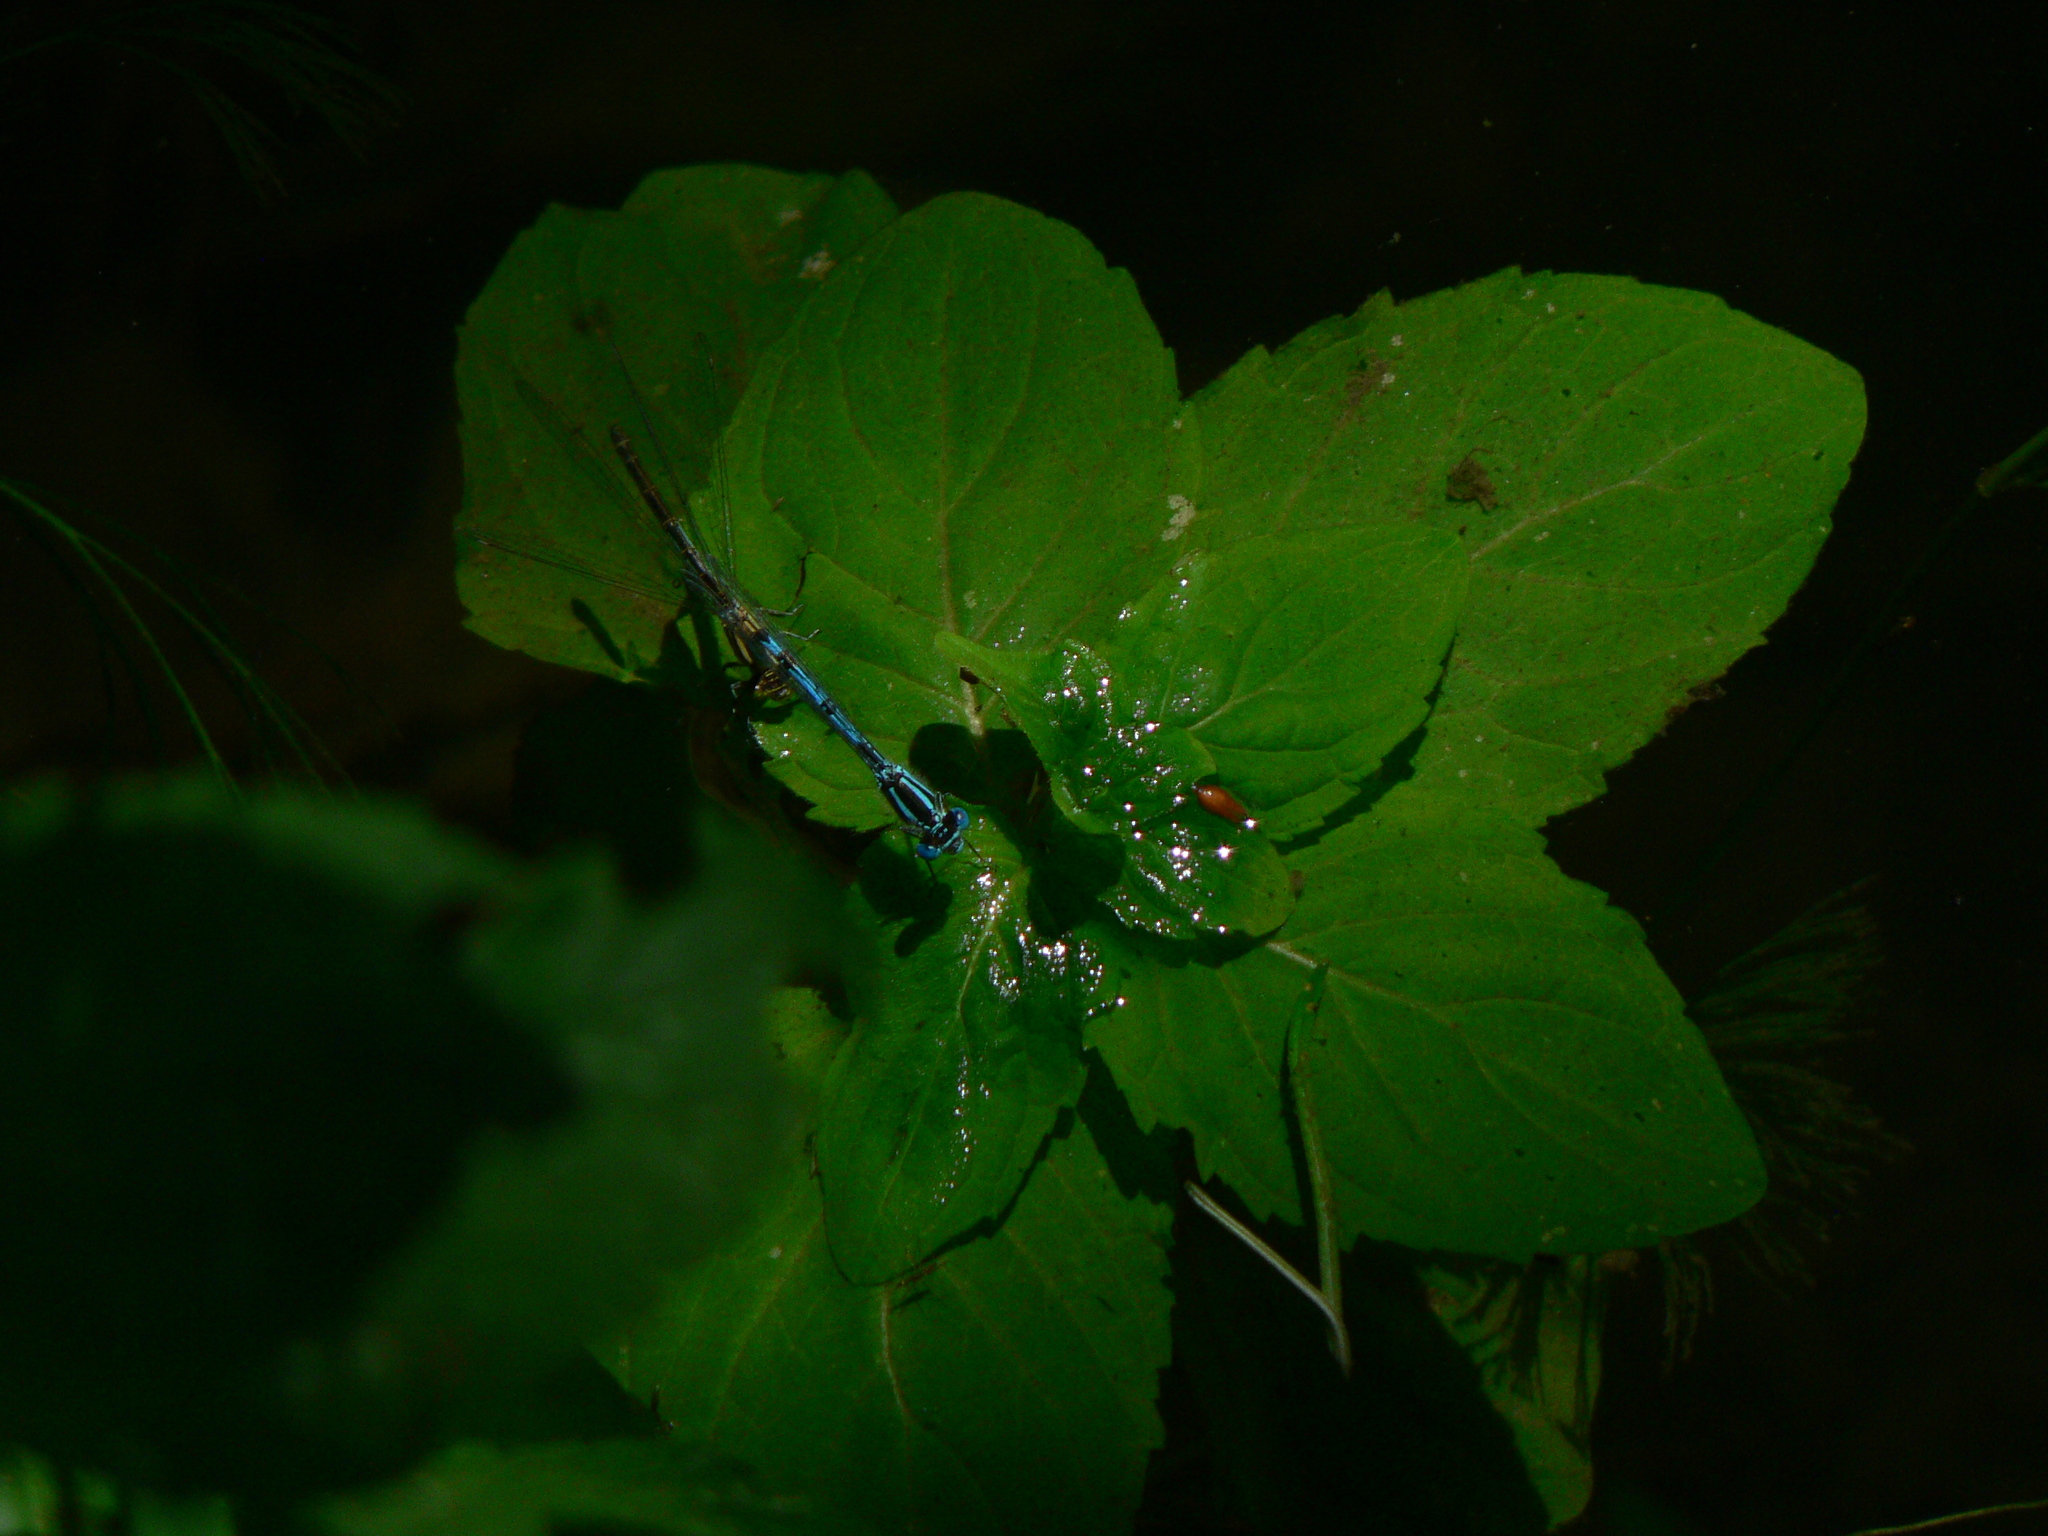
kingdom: Animalia
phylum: Arthropoda
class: Insecta
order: Odonata
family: Coenagrionidae
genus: Erythromma
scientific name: Erythromma lindenii
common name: Blue-eye
